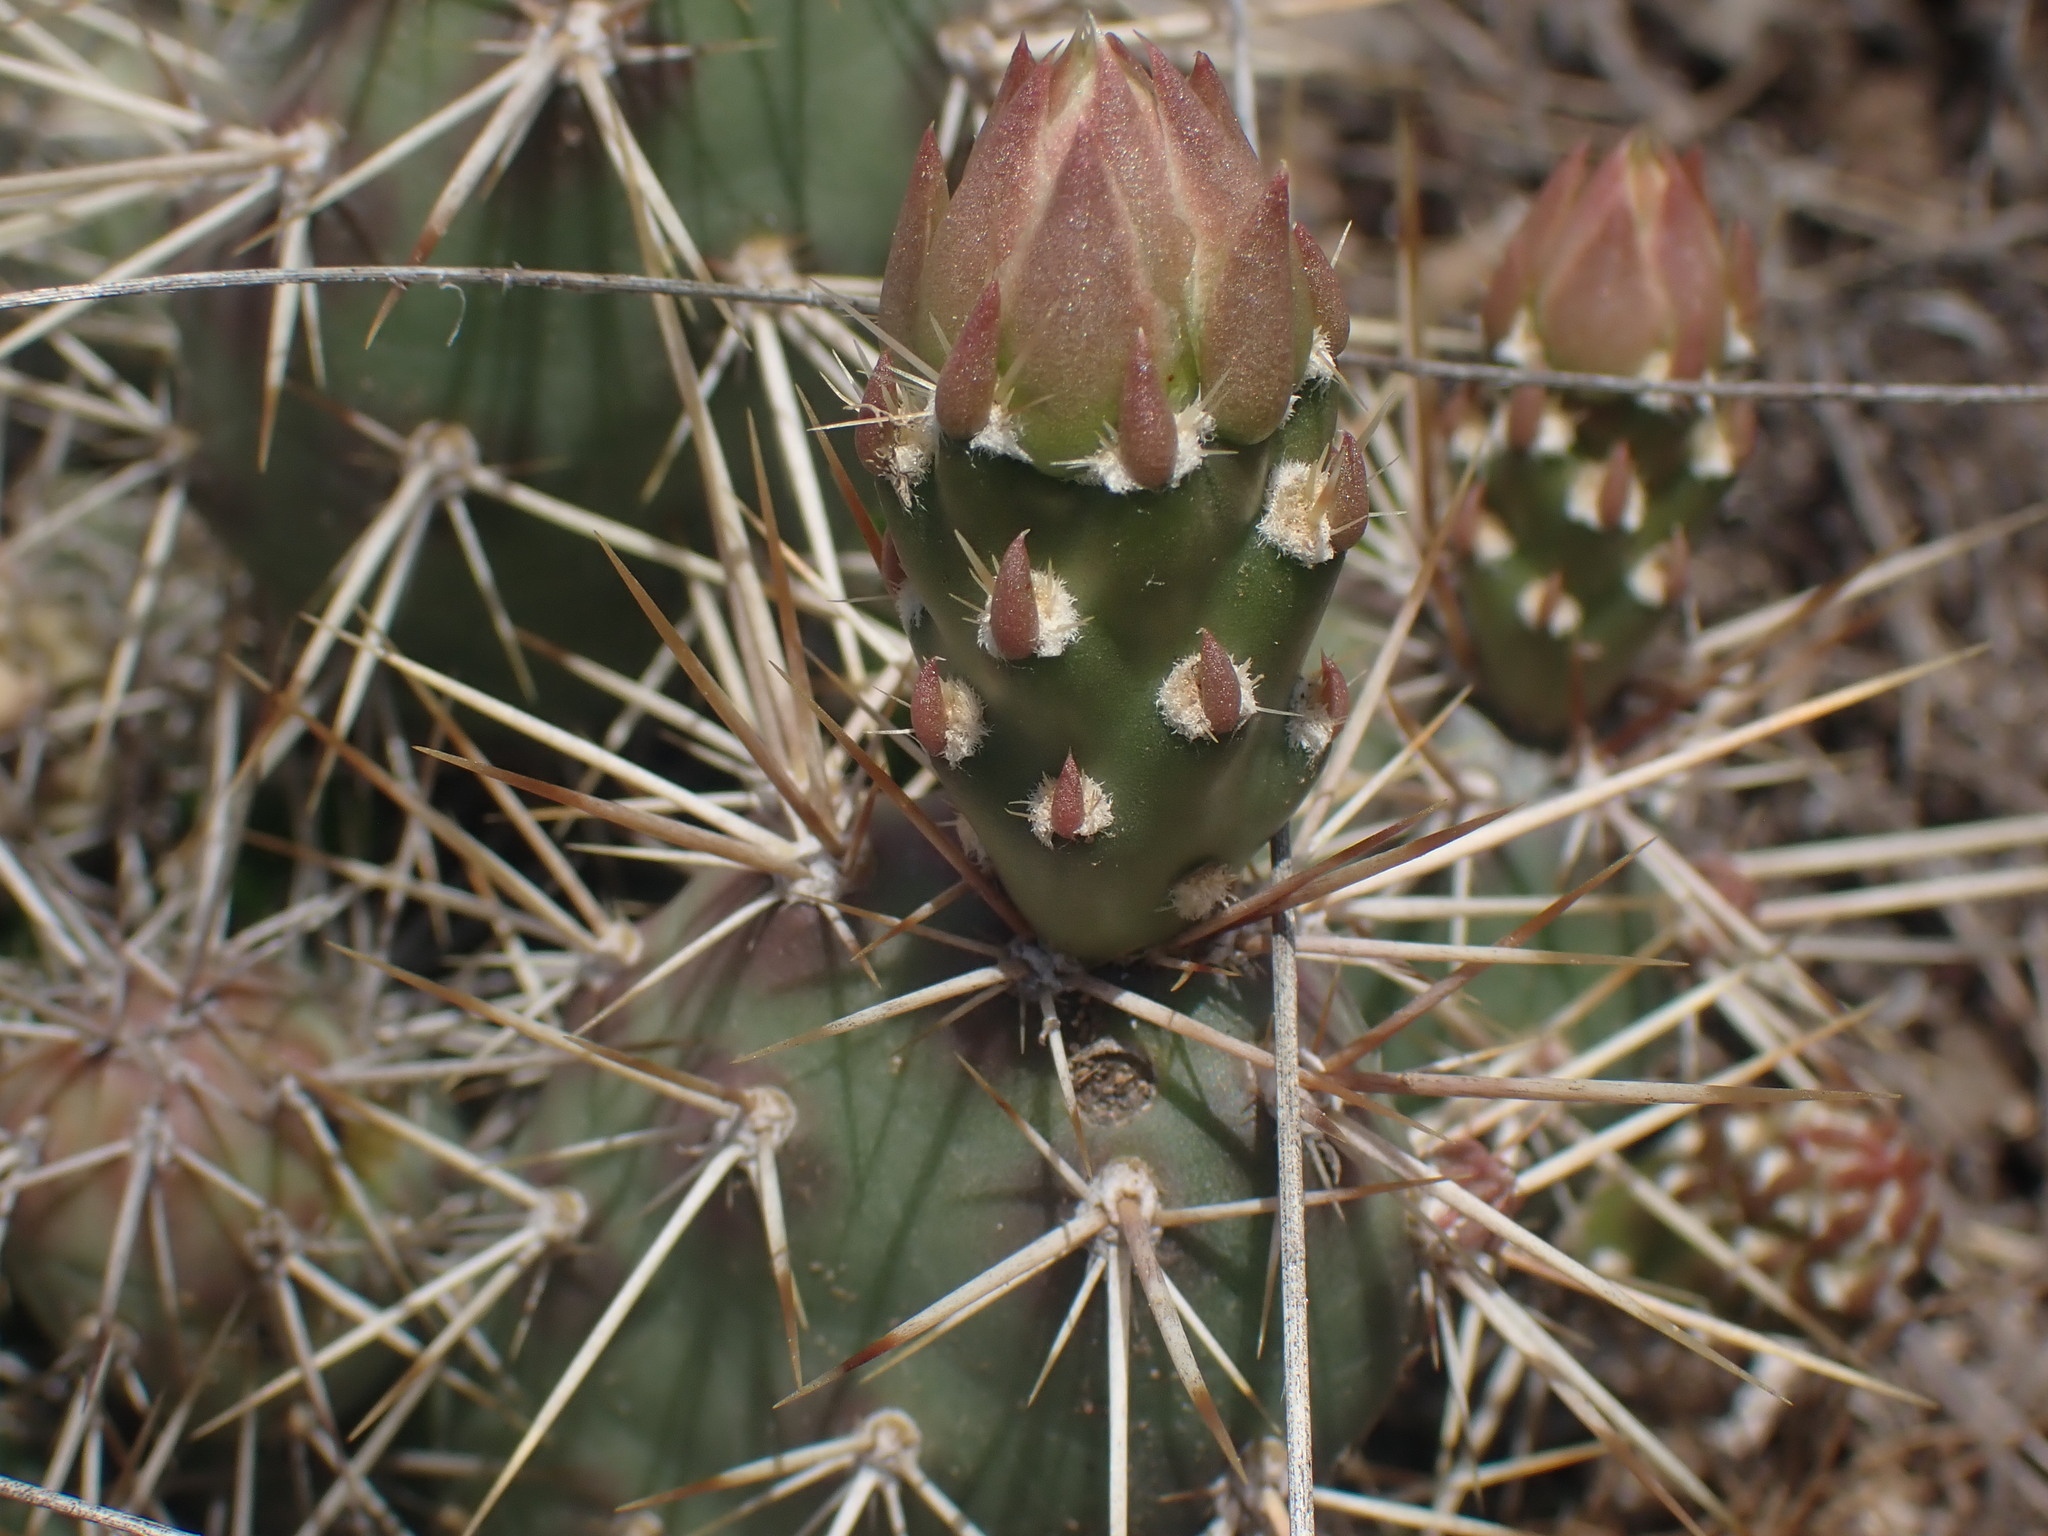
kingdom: Plantae
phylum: Tracheophyta
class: Magnoliopsida
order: Caryophyllales
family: Cactaceae
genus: Opuntia
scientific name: Opuntia fragilis
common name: Brittle cactus
